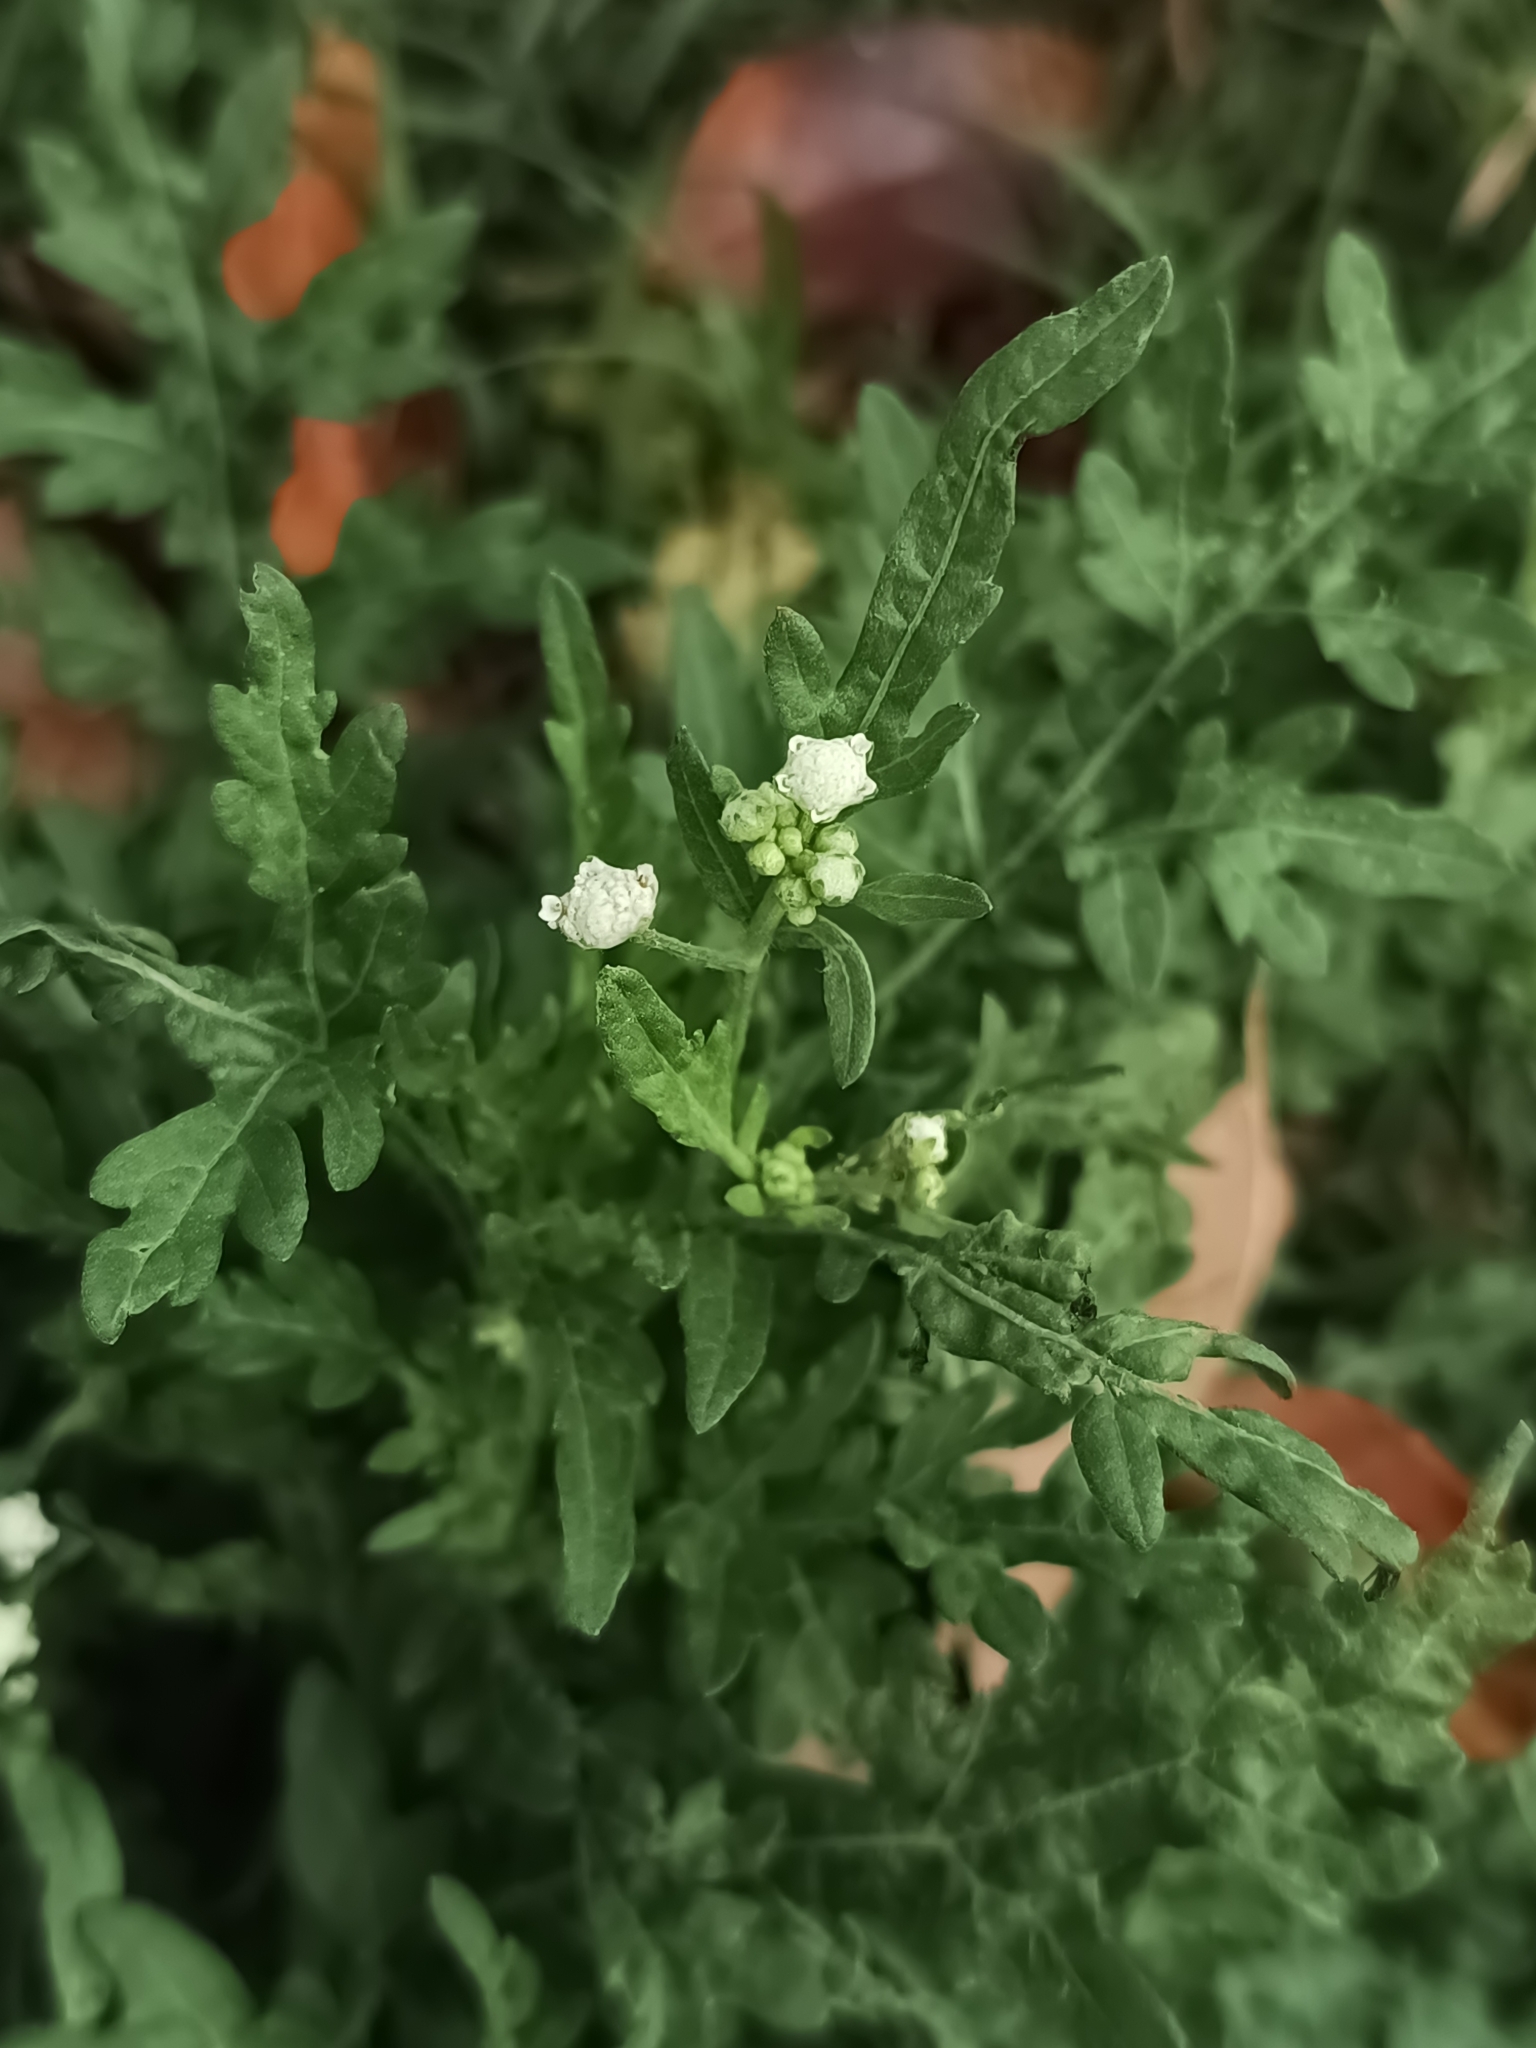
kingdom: Plantae
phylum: Tracheophyta
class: Magnoliopsida
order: Asterales
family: Asteraceae
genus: Parthenium
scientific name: Parthenium bipinnatifidum
